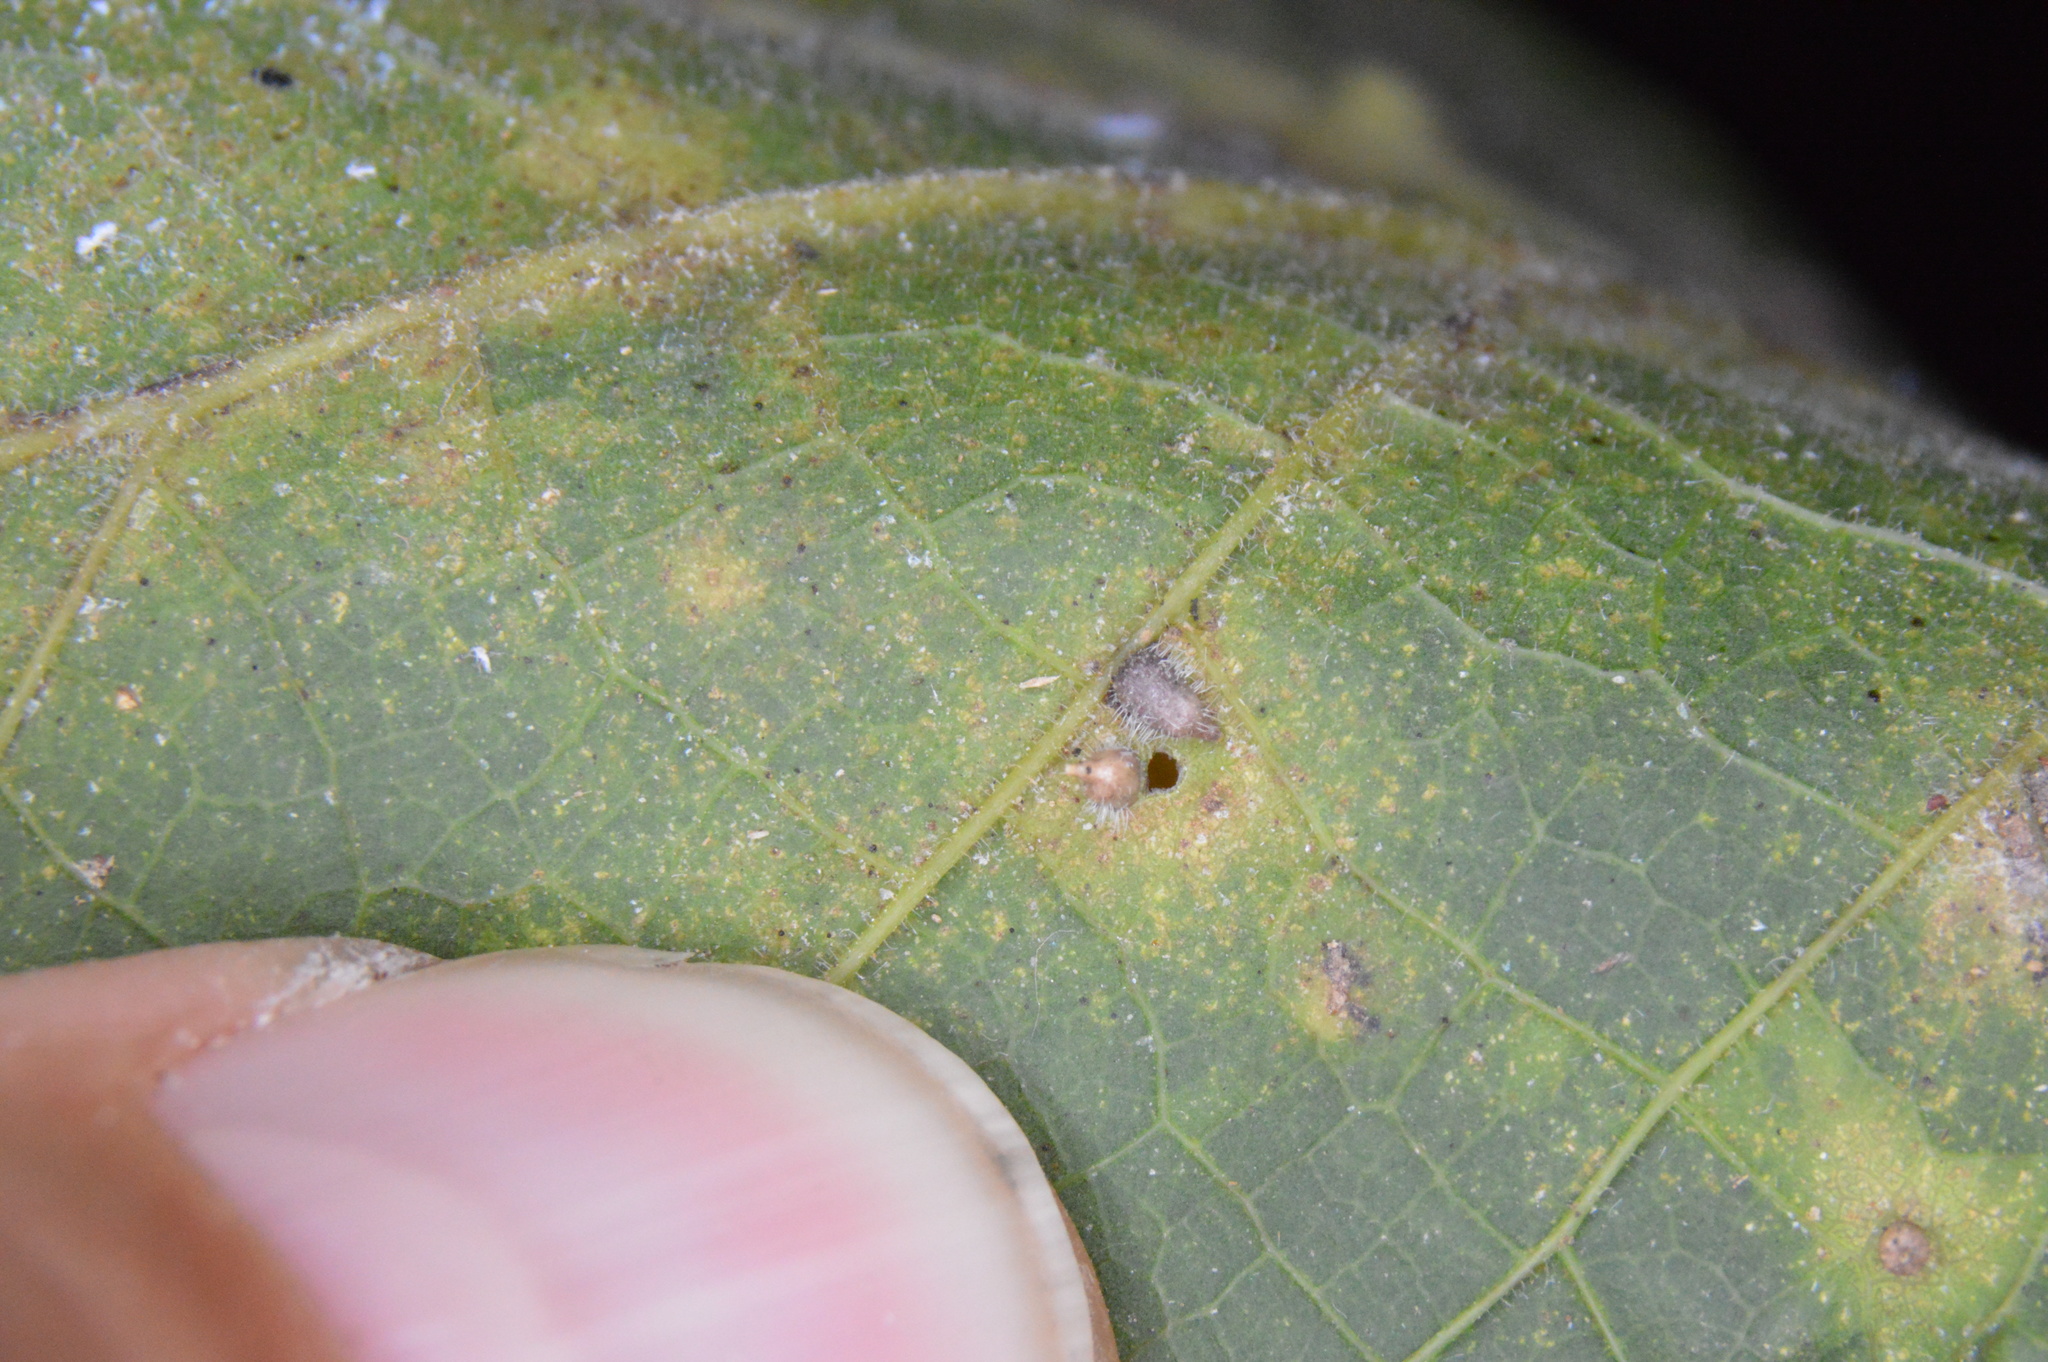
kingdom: Animalia
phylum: Arthropoda
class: Insecta
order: Diptera
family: Cecidomyiidae
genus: Celticecis
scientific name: Celticecis supina
